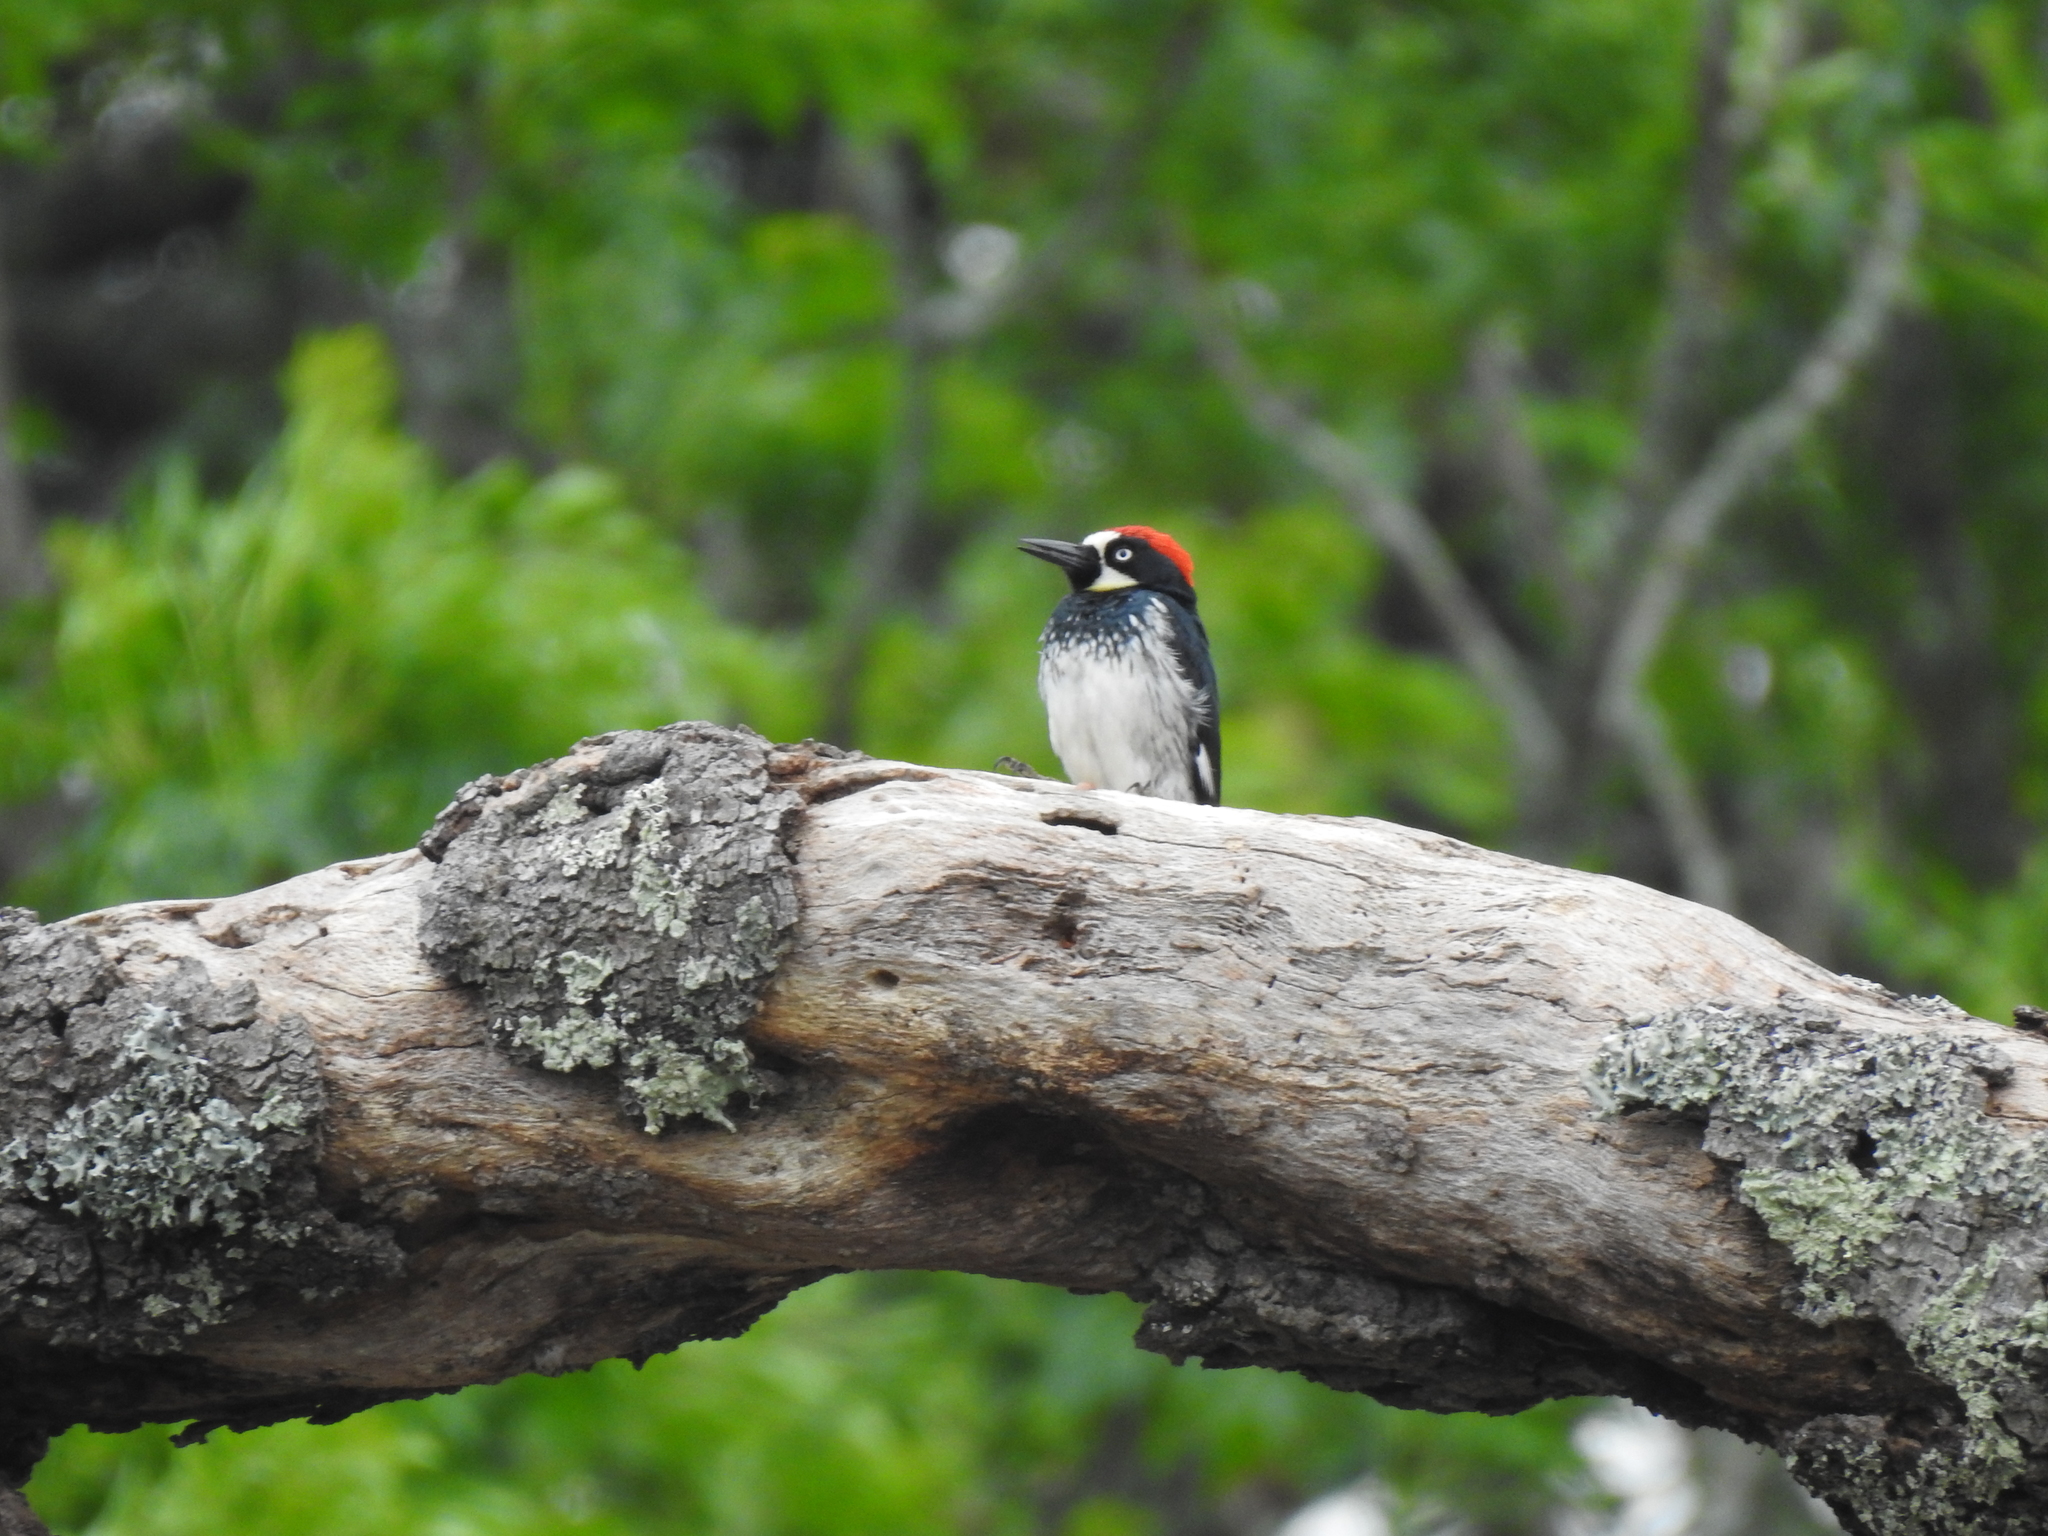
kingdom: Animalia
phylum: Chordata
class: Aves
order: Piciformes
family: Picidae
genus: Melanerpes
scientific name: Melanerpes formicivorus
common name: Acorn woodpecker
